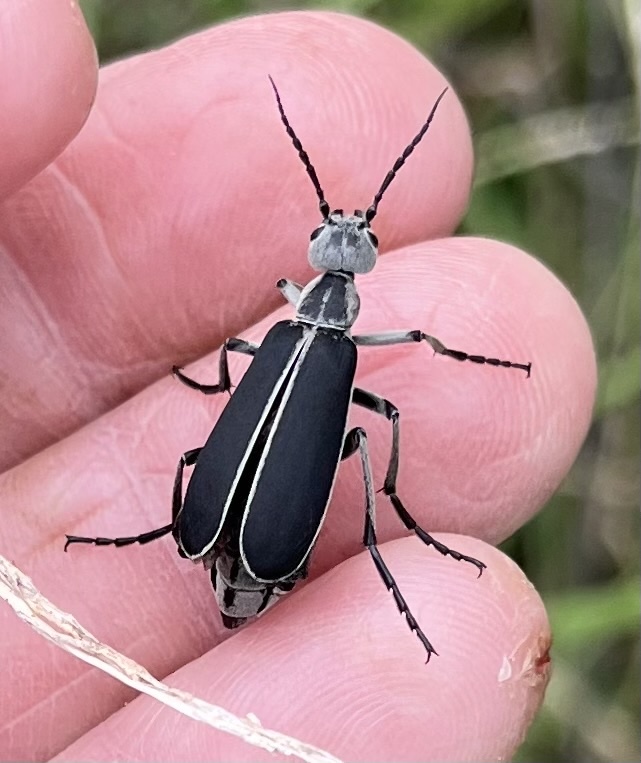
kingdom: Animalia
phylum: Arthropoda
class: Insecta
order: Coleoptera
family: Meloidae
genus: Epicauta
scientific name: Epicauta cinerea
